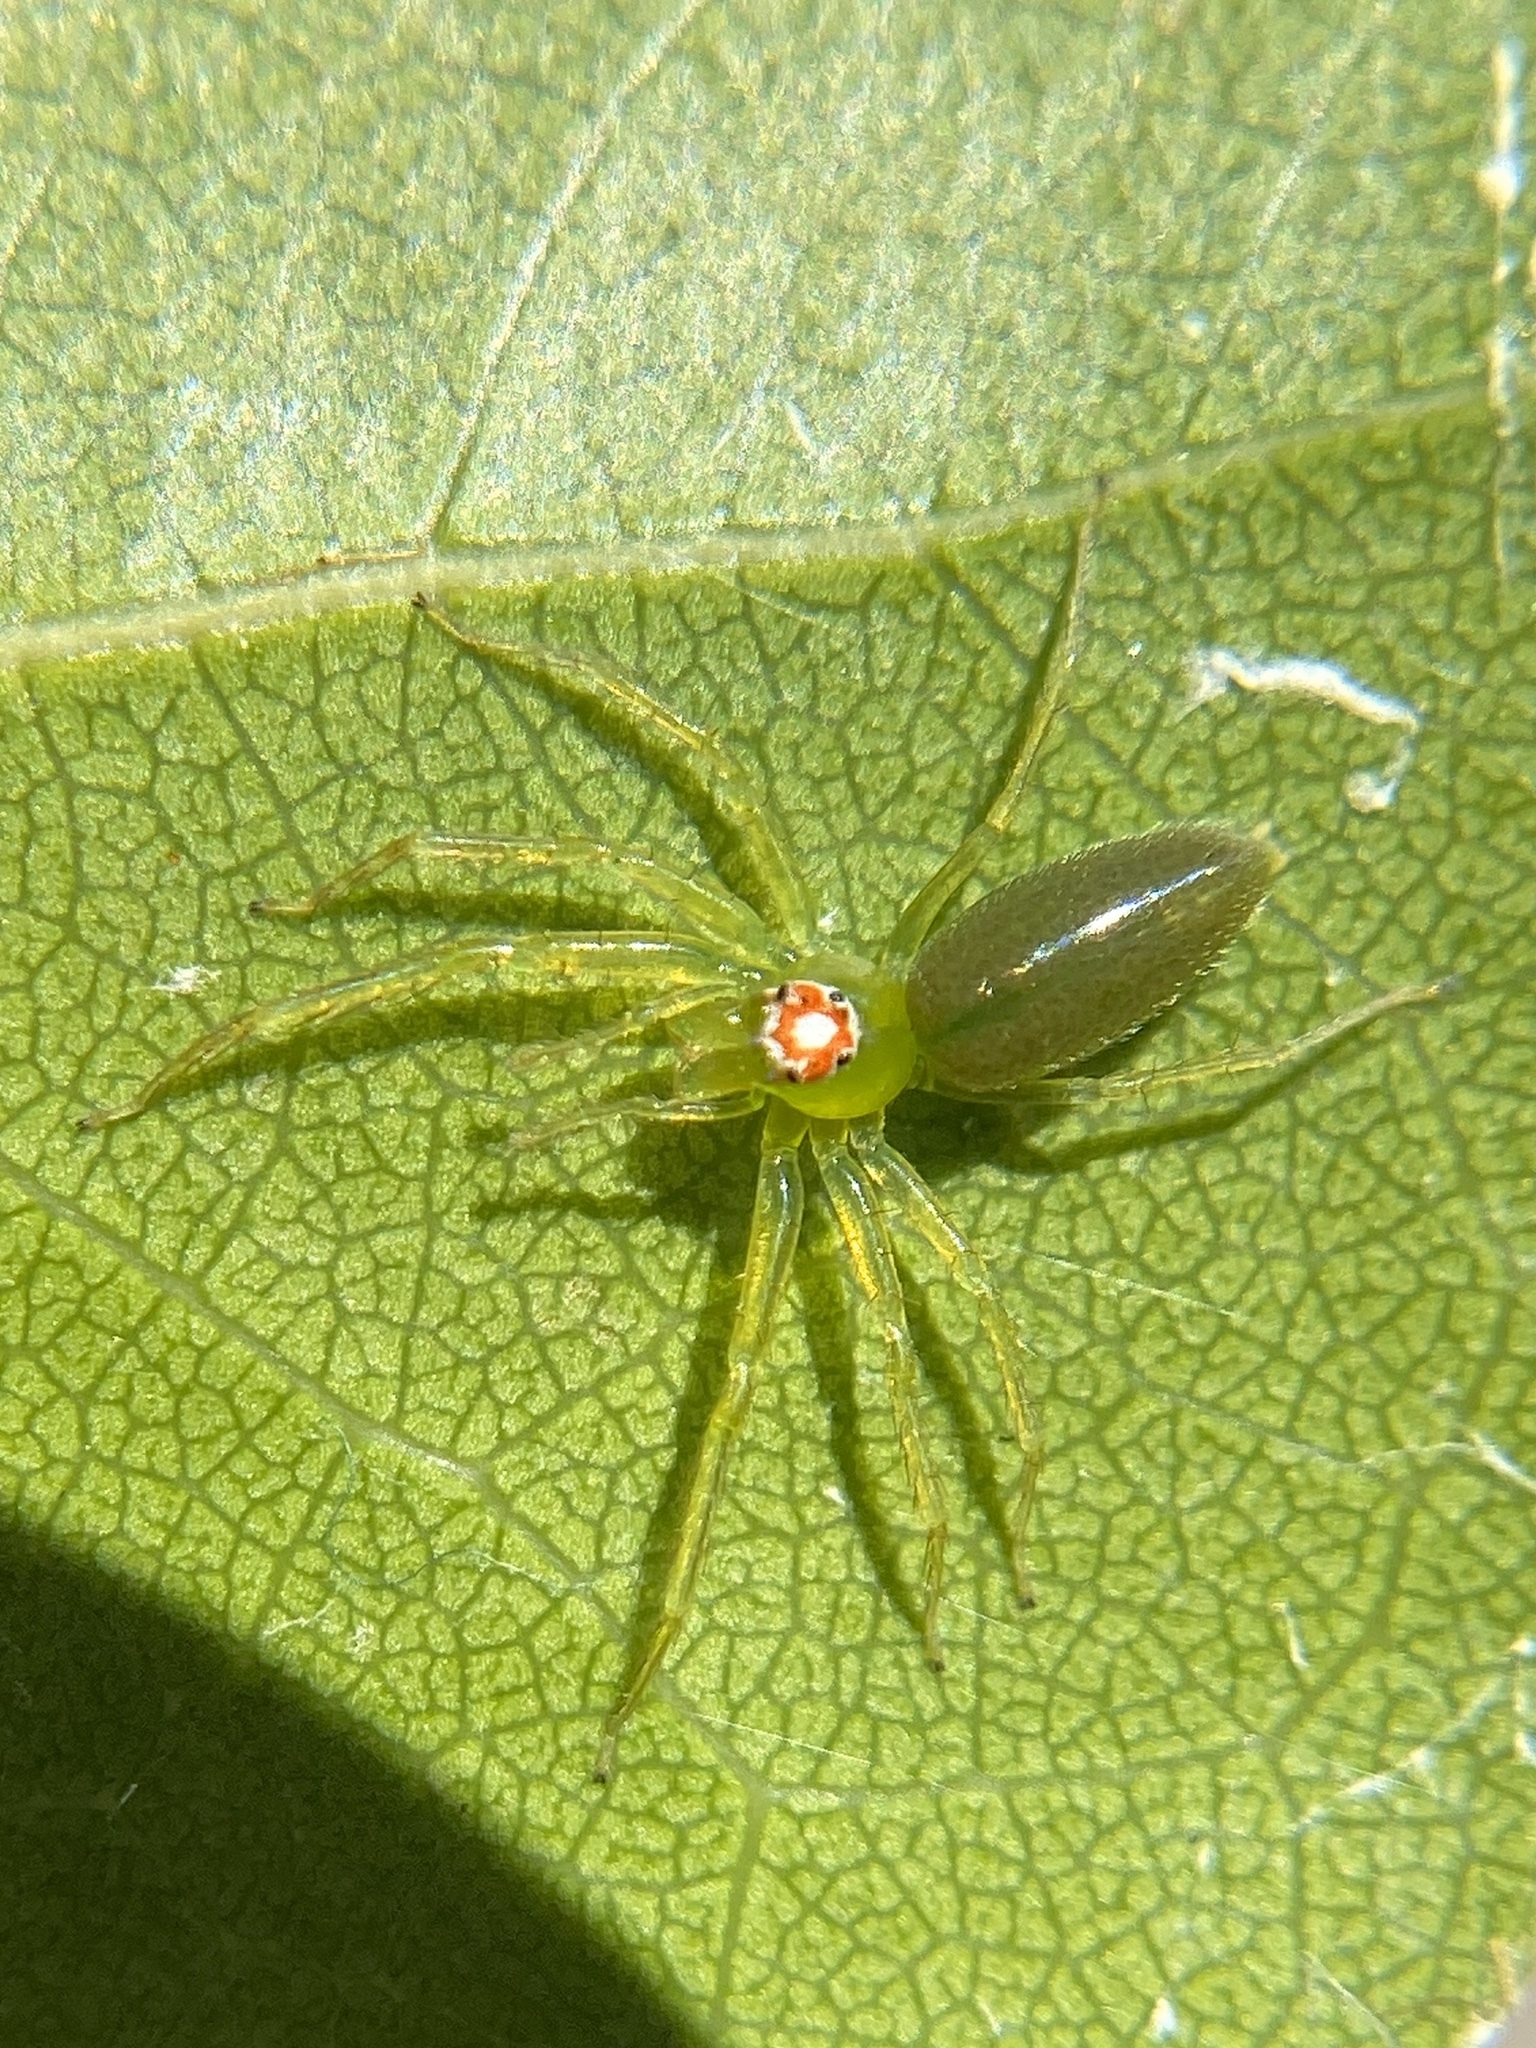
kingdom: Animalia
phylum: Arthropoda
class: Arachnida
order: Araneae
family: Salticidae
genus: Lyssomanes
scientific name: Lyssomanes viridis
